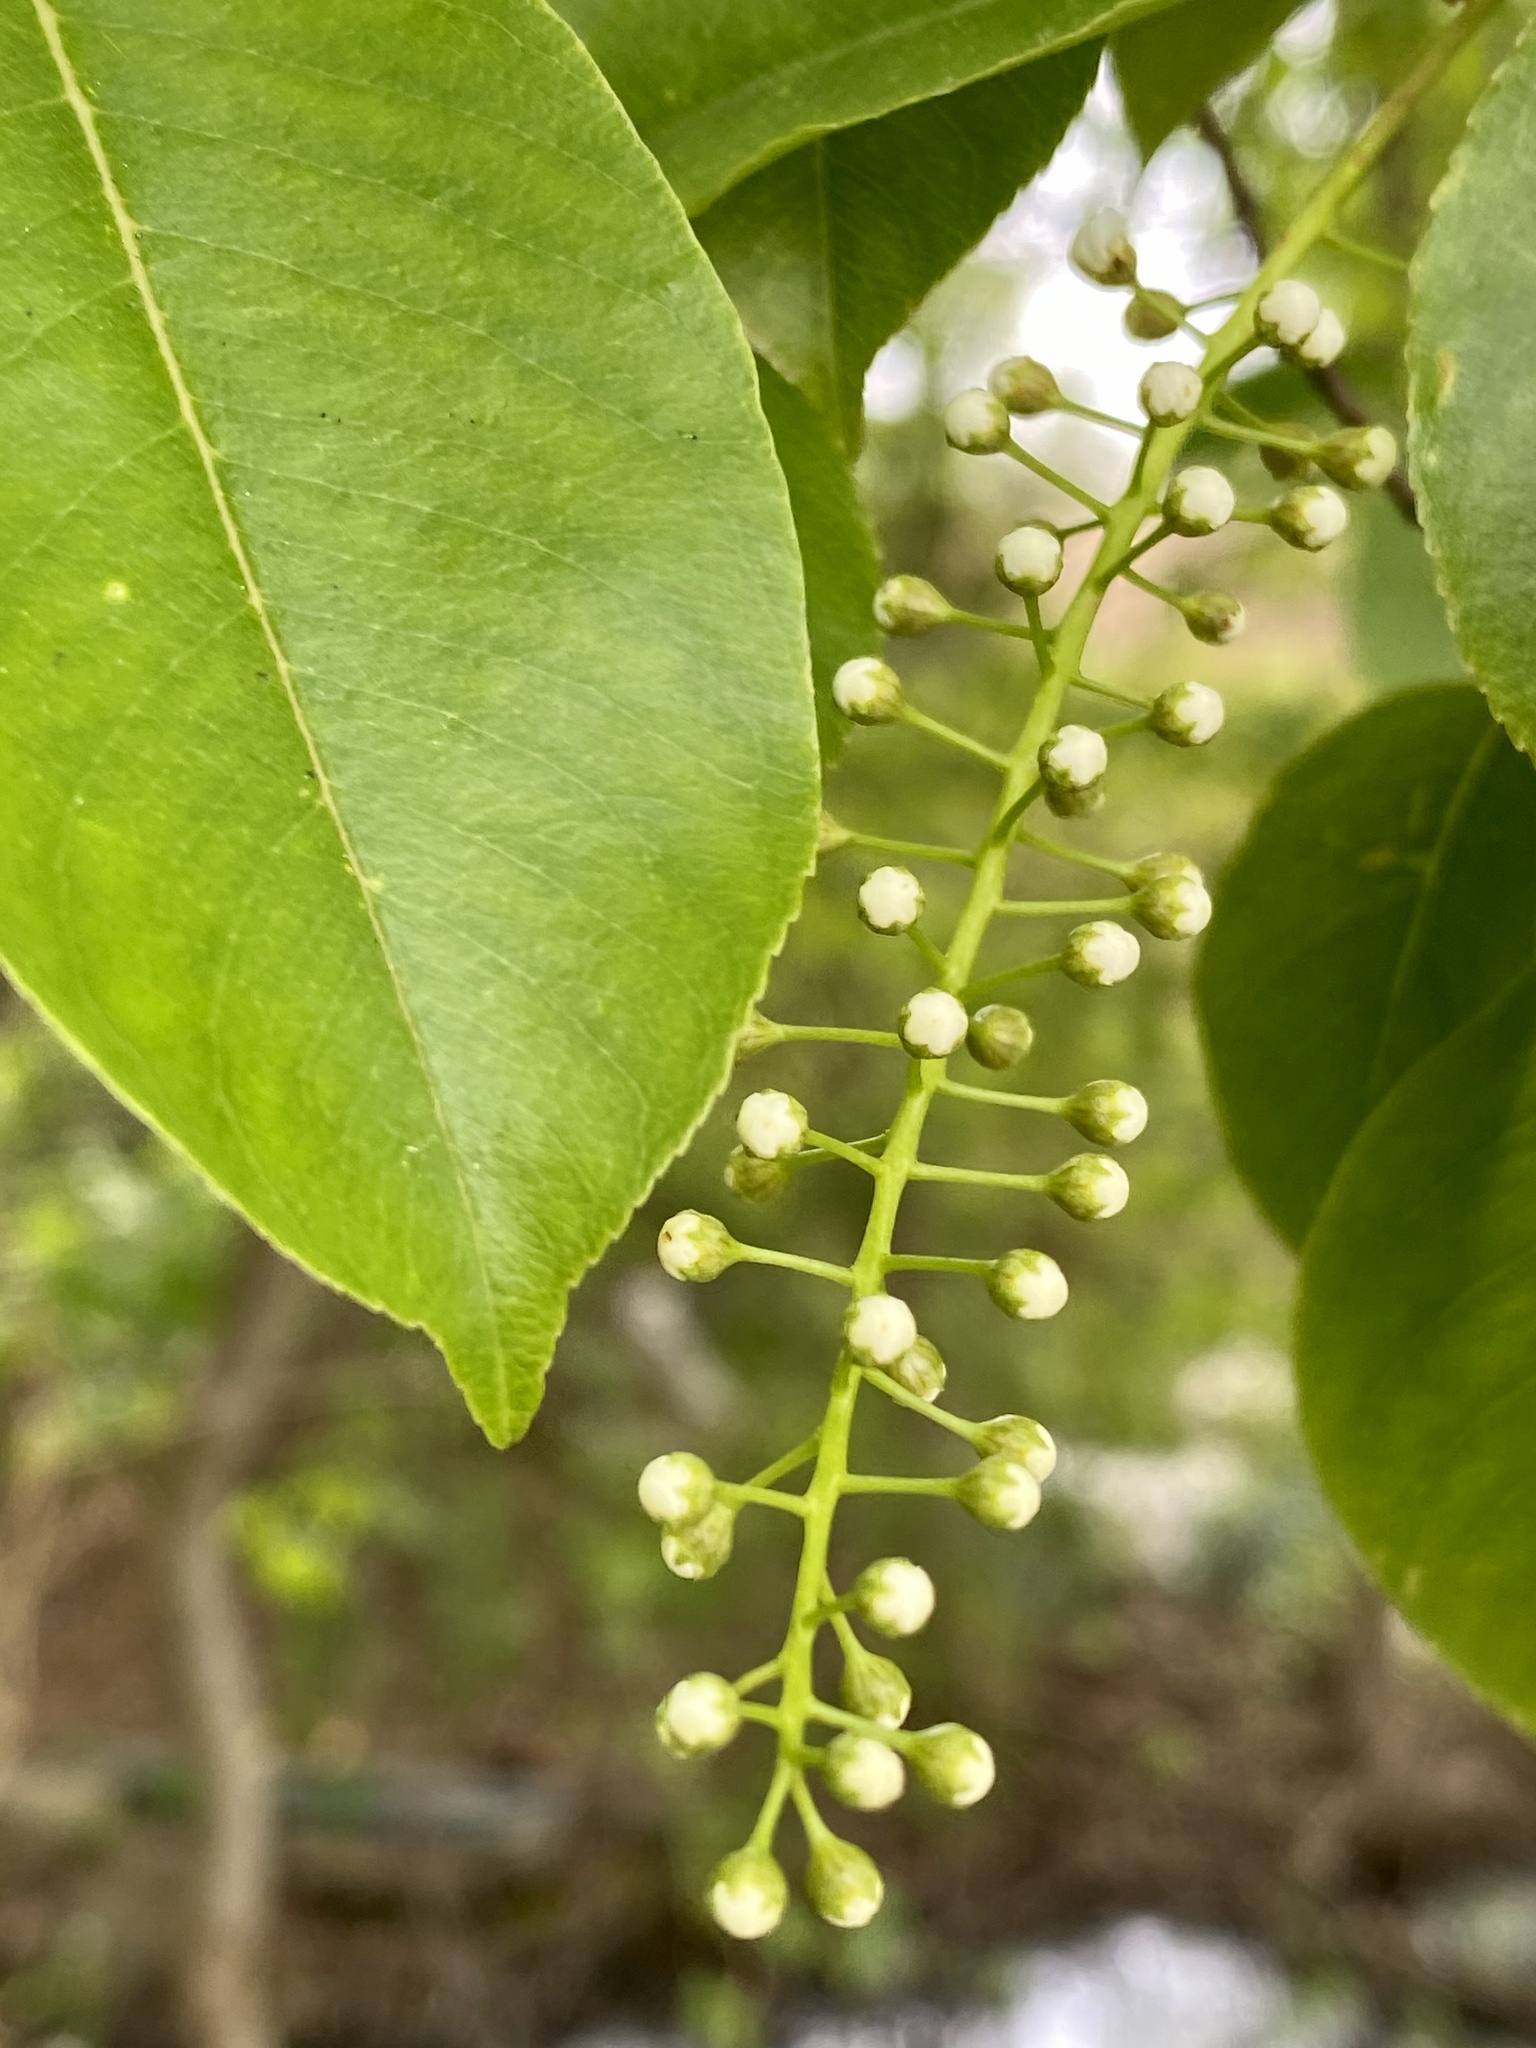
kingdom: Plantae
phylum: Tracheophyta
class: Magnoliopsida
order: Rosales
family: Rosaceae
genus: Prunus
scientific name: Prunus serotina
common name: Black cherry
